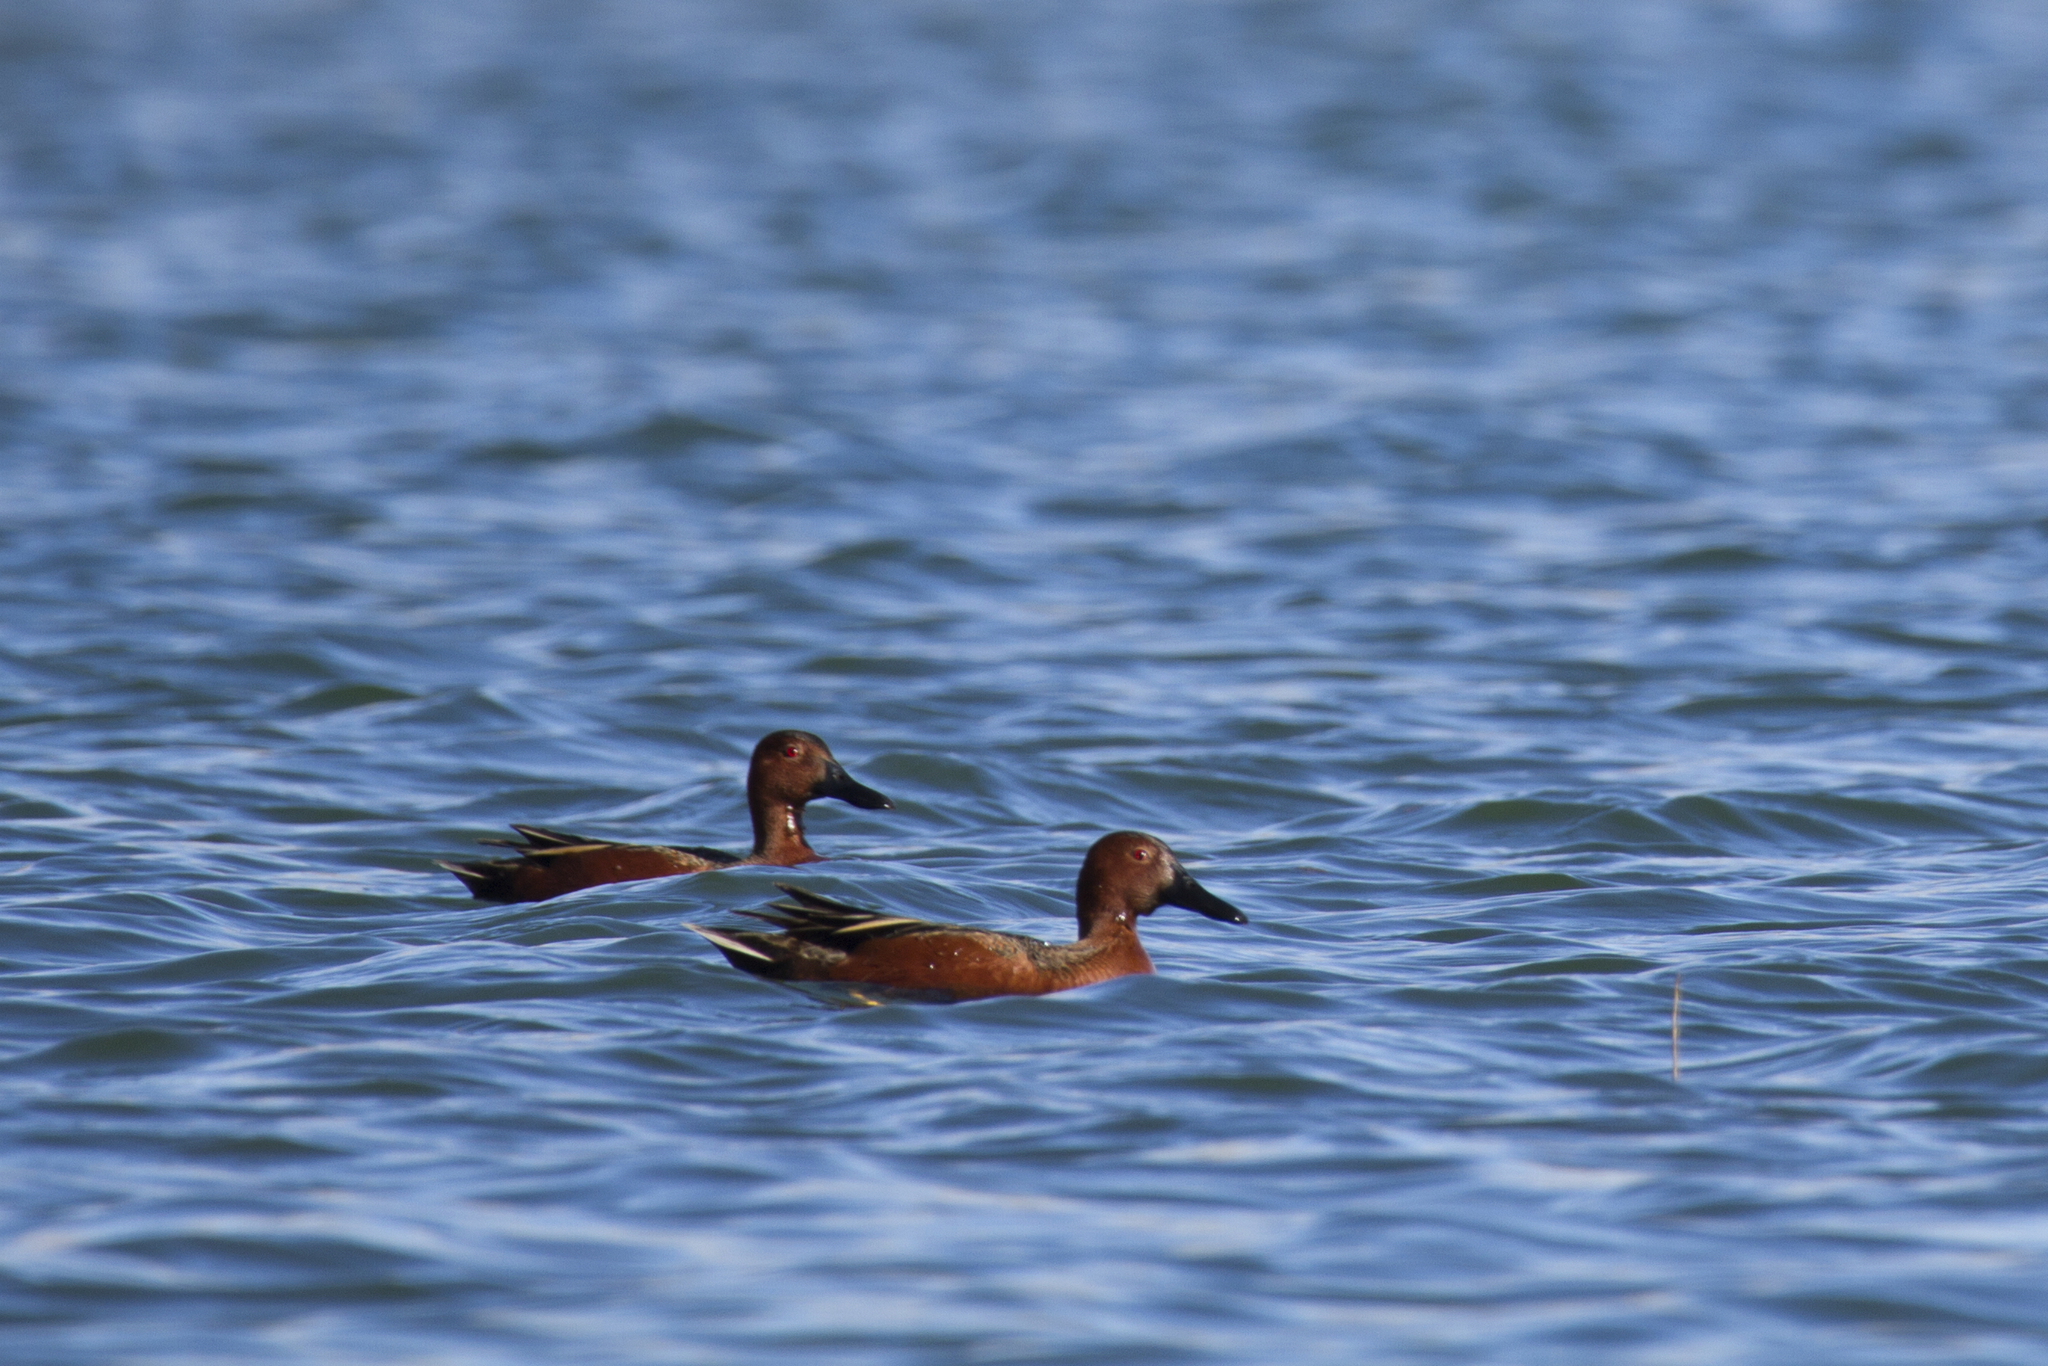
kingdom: Animalia
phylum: Chordata
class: Aves
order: Anseriformes
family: Anatidae
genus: Spatula
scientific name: Spatula cyanoptera
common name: Cinnamon teal
